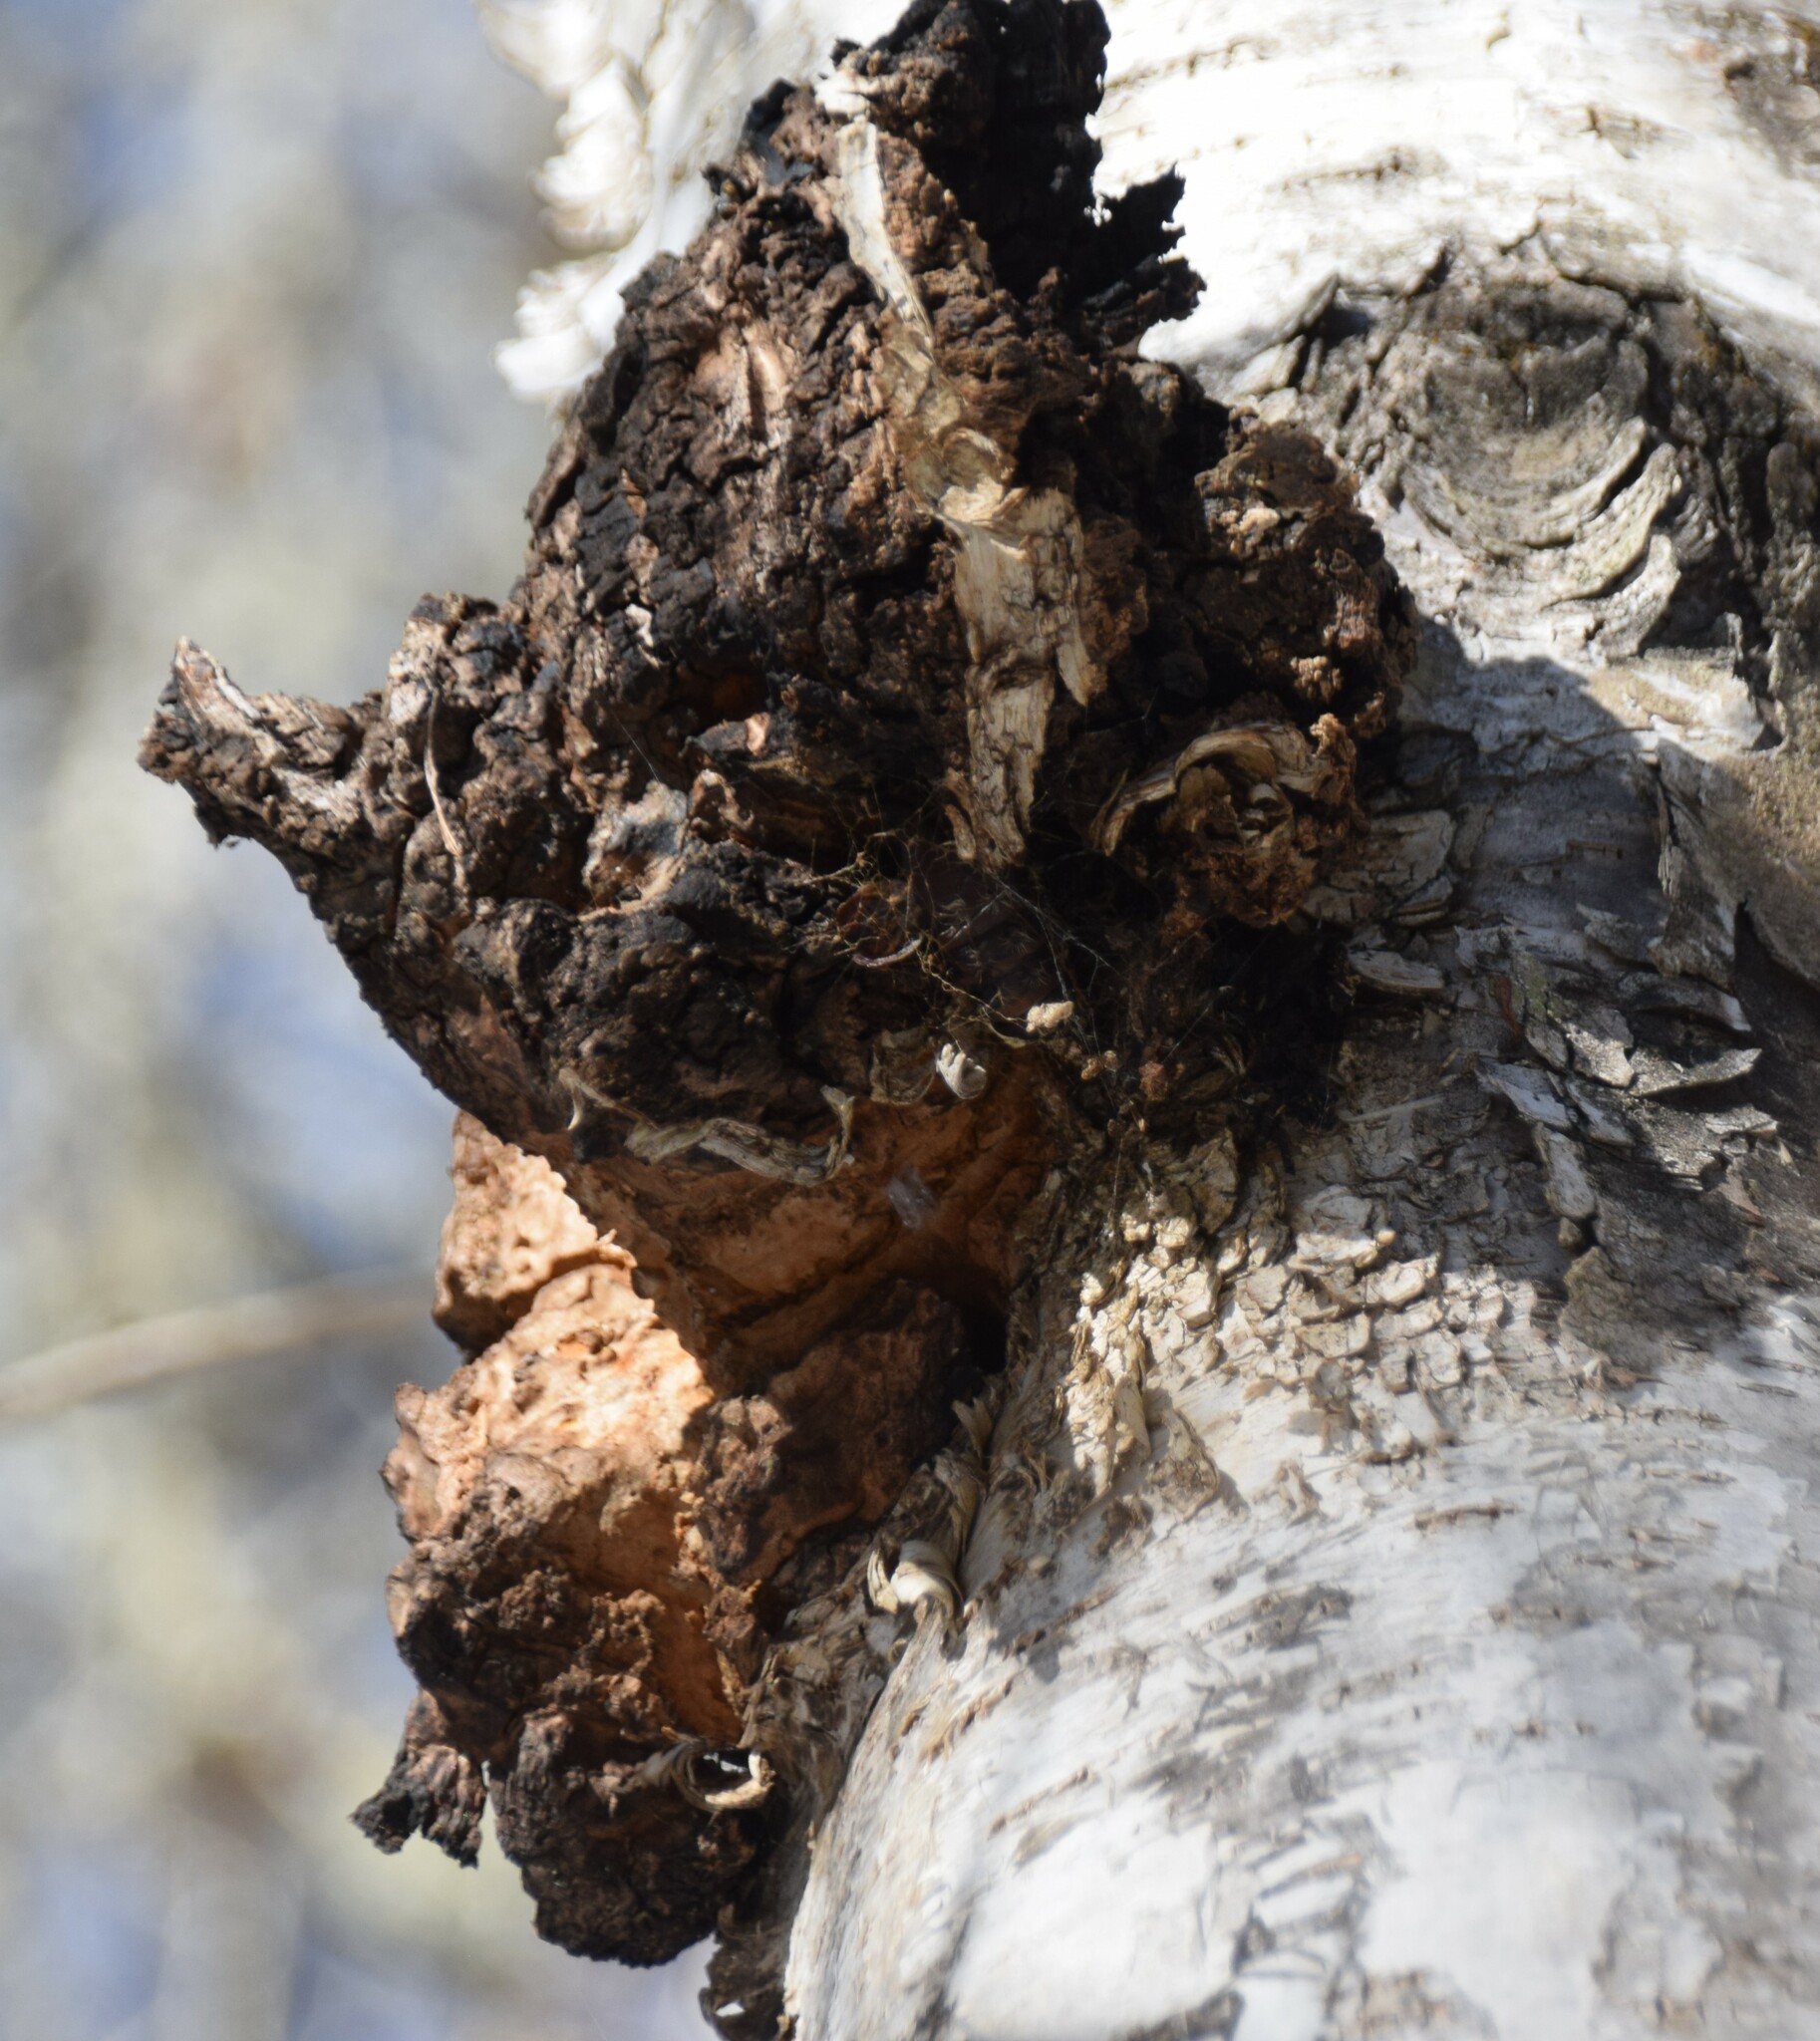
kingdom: Fungi
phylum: Basidiomycota
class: Agaricomycetes
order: Hymenochaetales
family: Hymenochaetaceae
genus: Inonotus
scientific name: Inonotus obliquus
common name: Chaga
